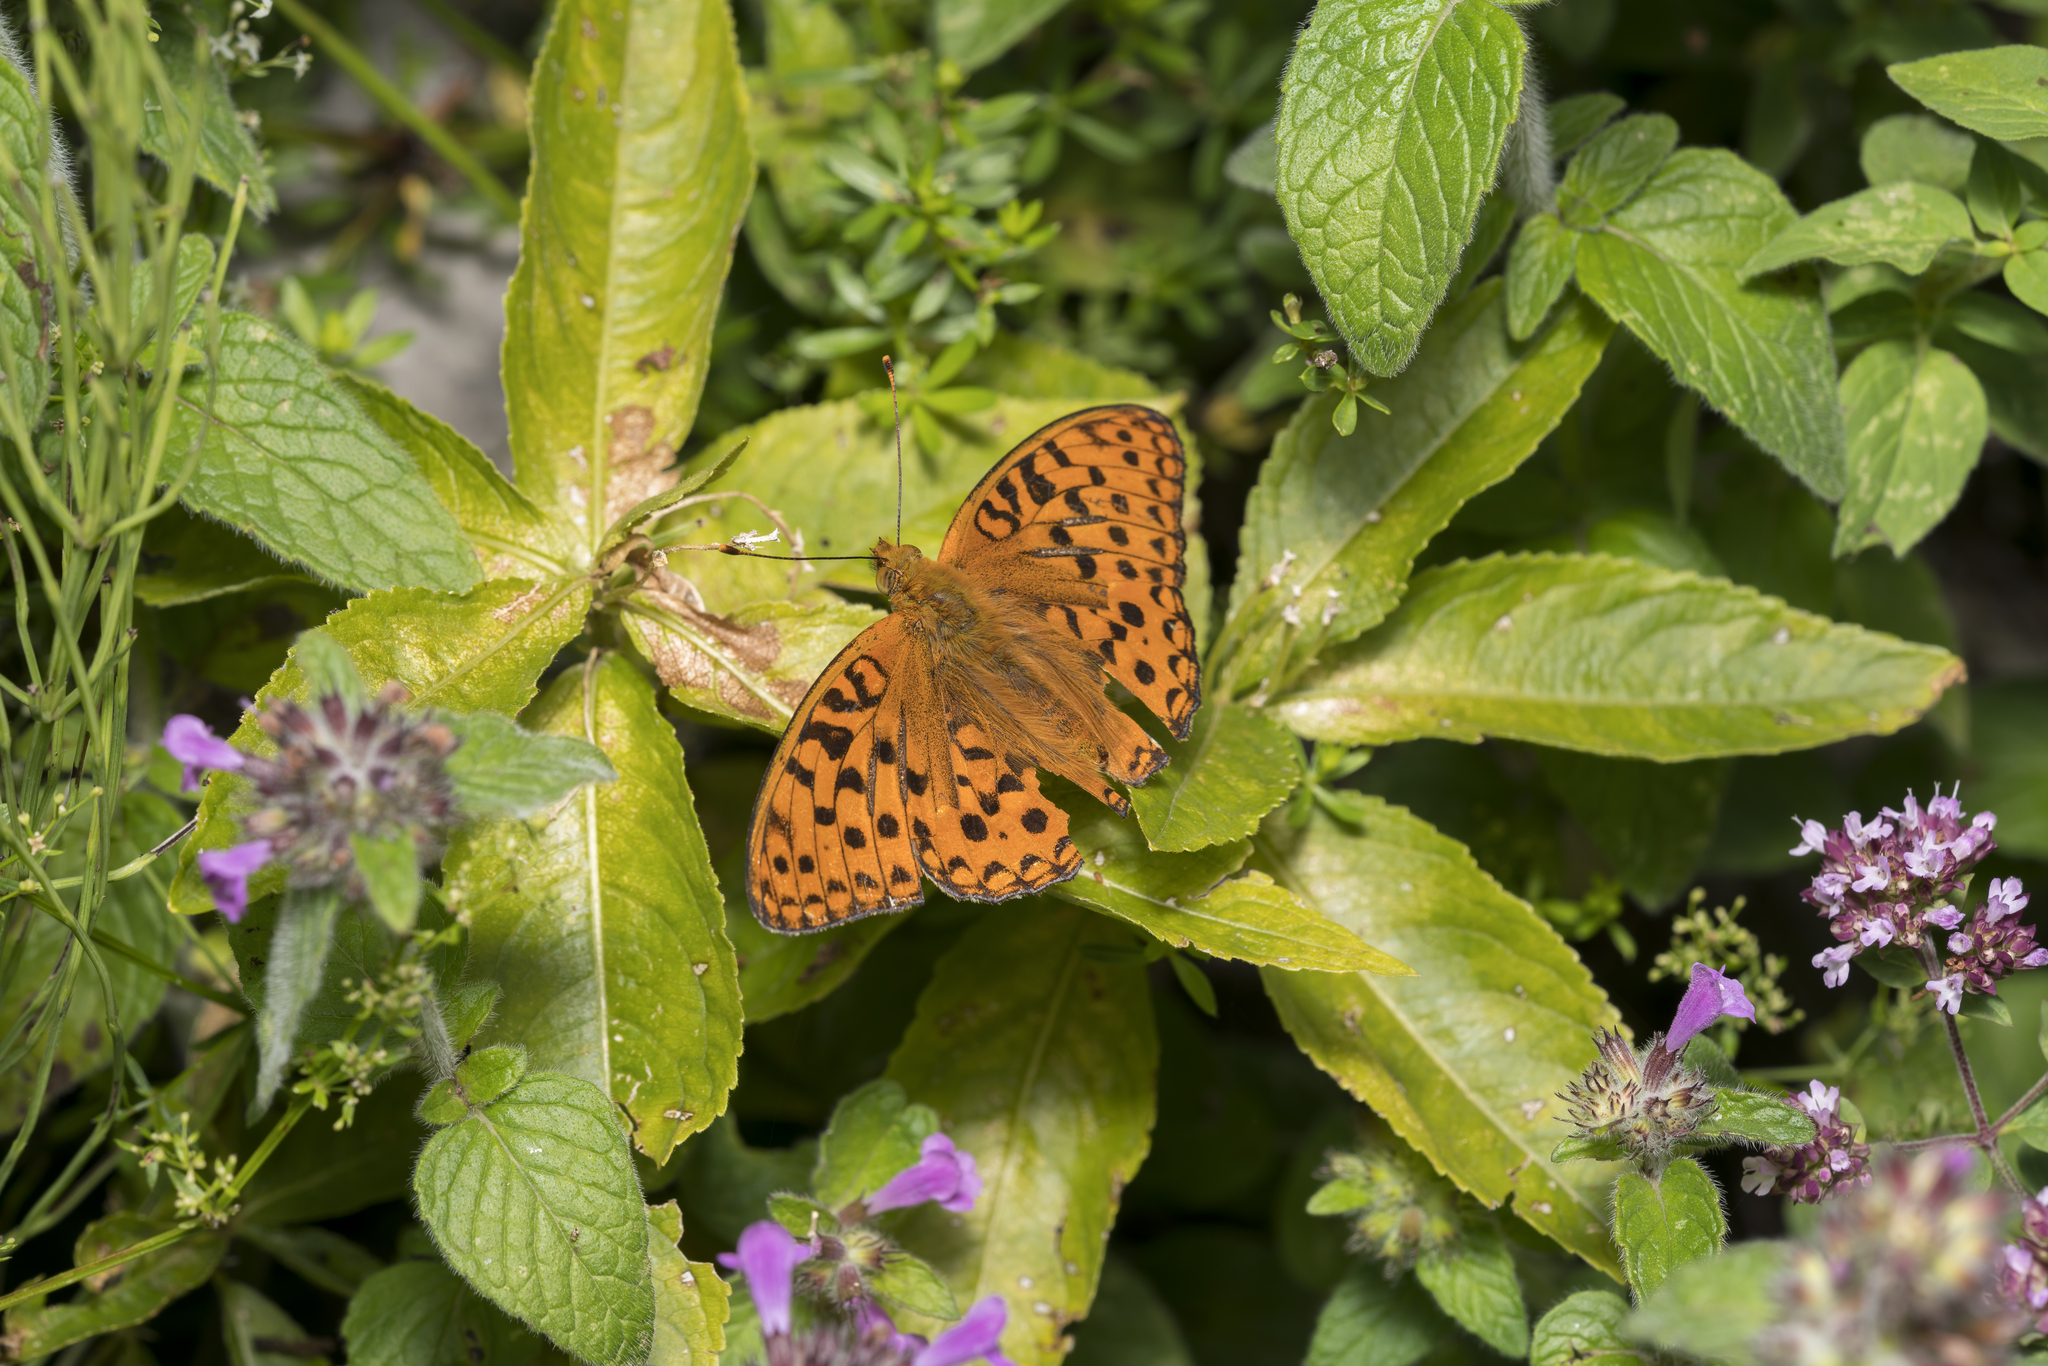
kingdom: Animalia
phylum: Arthropoda
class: Insecta
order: Lepidoptera
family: Nymphalidae
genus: Fabriciana
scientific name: Fabriciana adippe
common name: High brown fritillary
